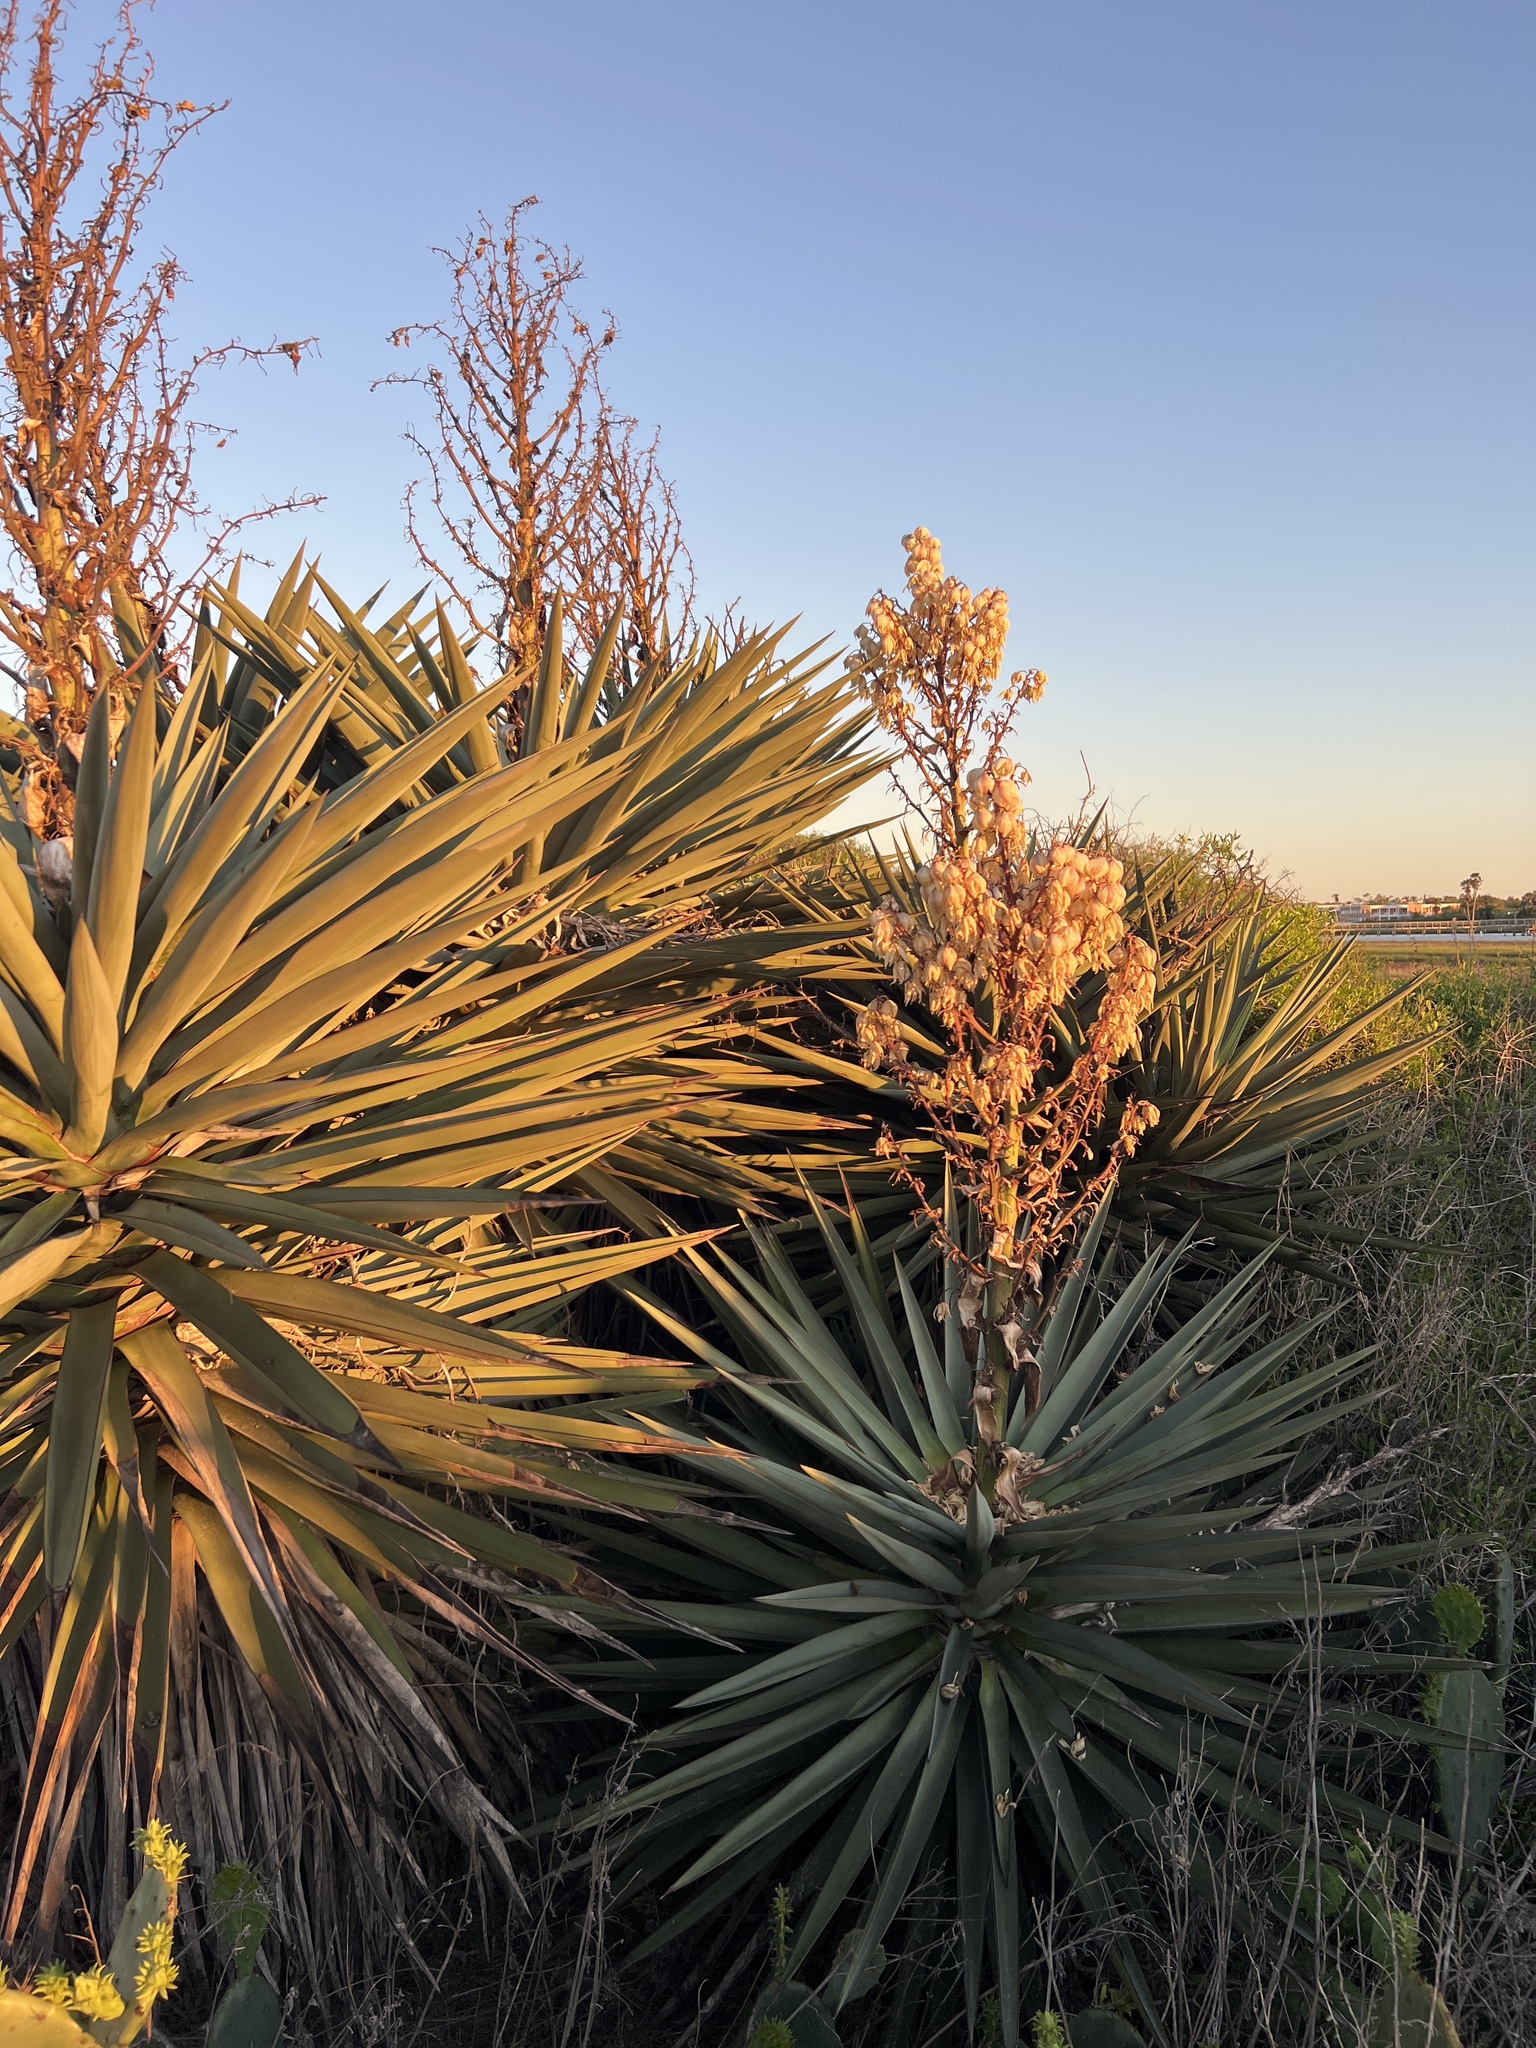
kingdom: Plantae
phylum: Tracheophyta
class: Liliopsida
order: Asparagales
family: Asparagaceae
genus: Yucca
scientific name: Yucca treculiana
